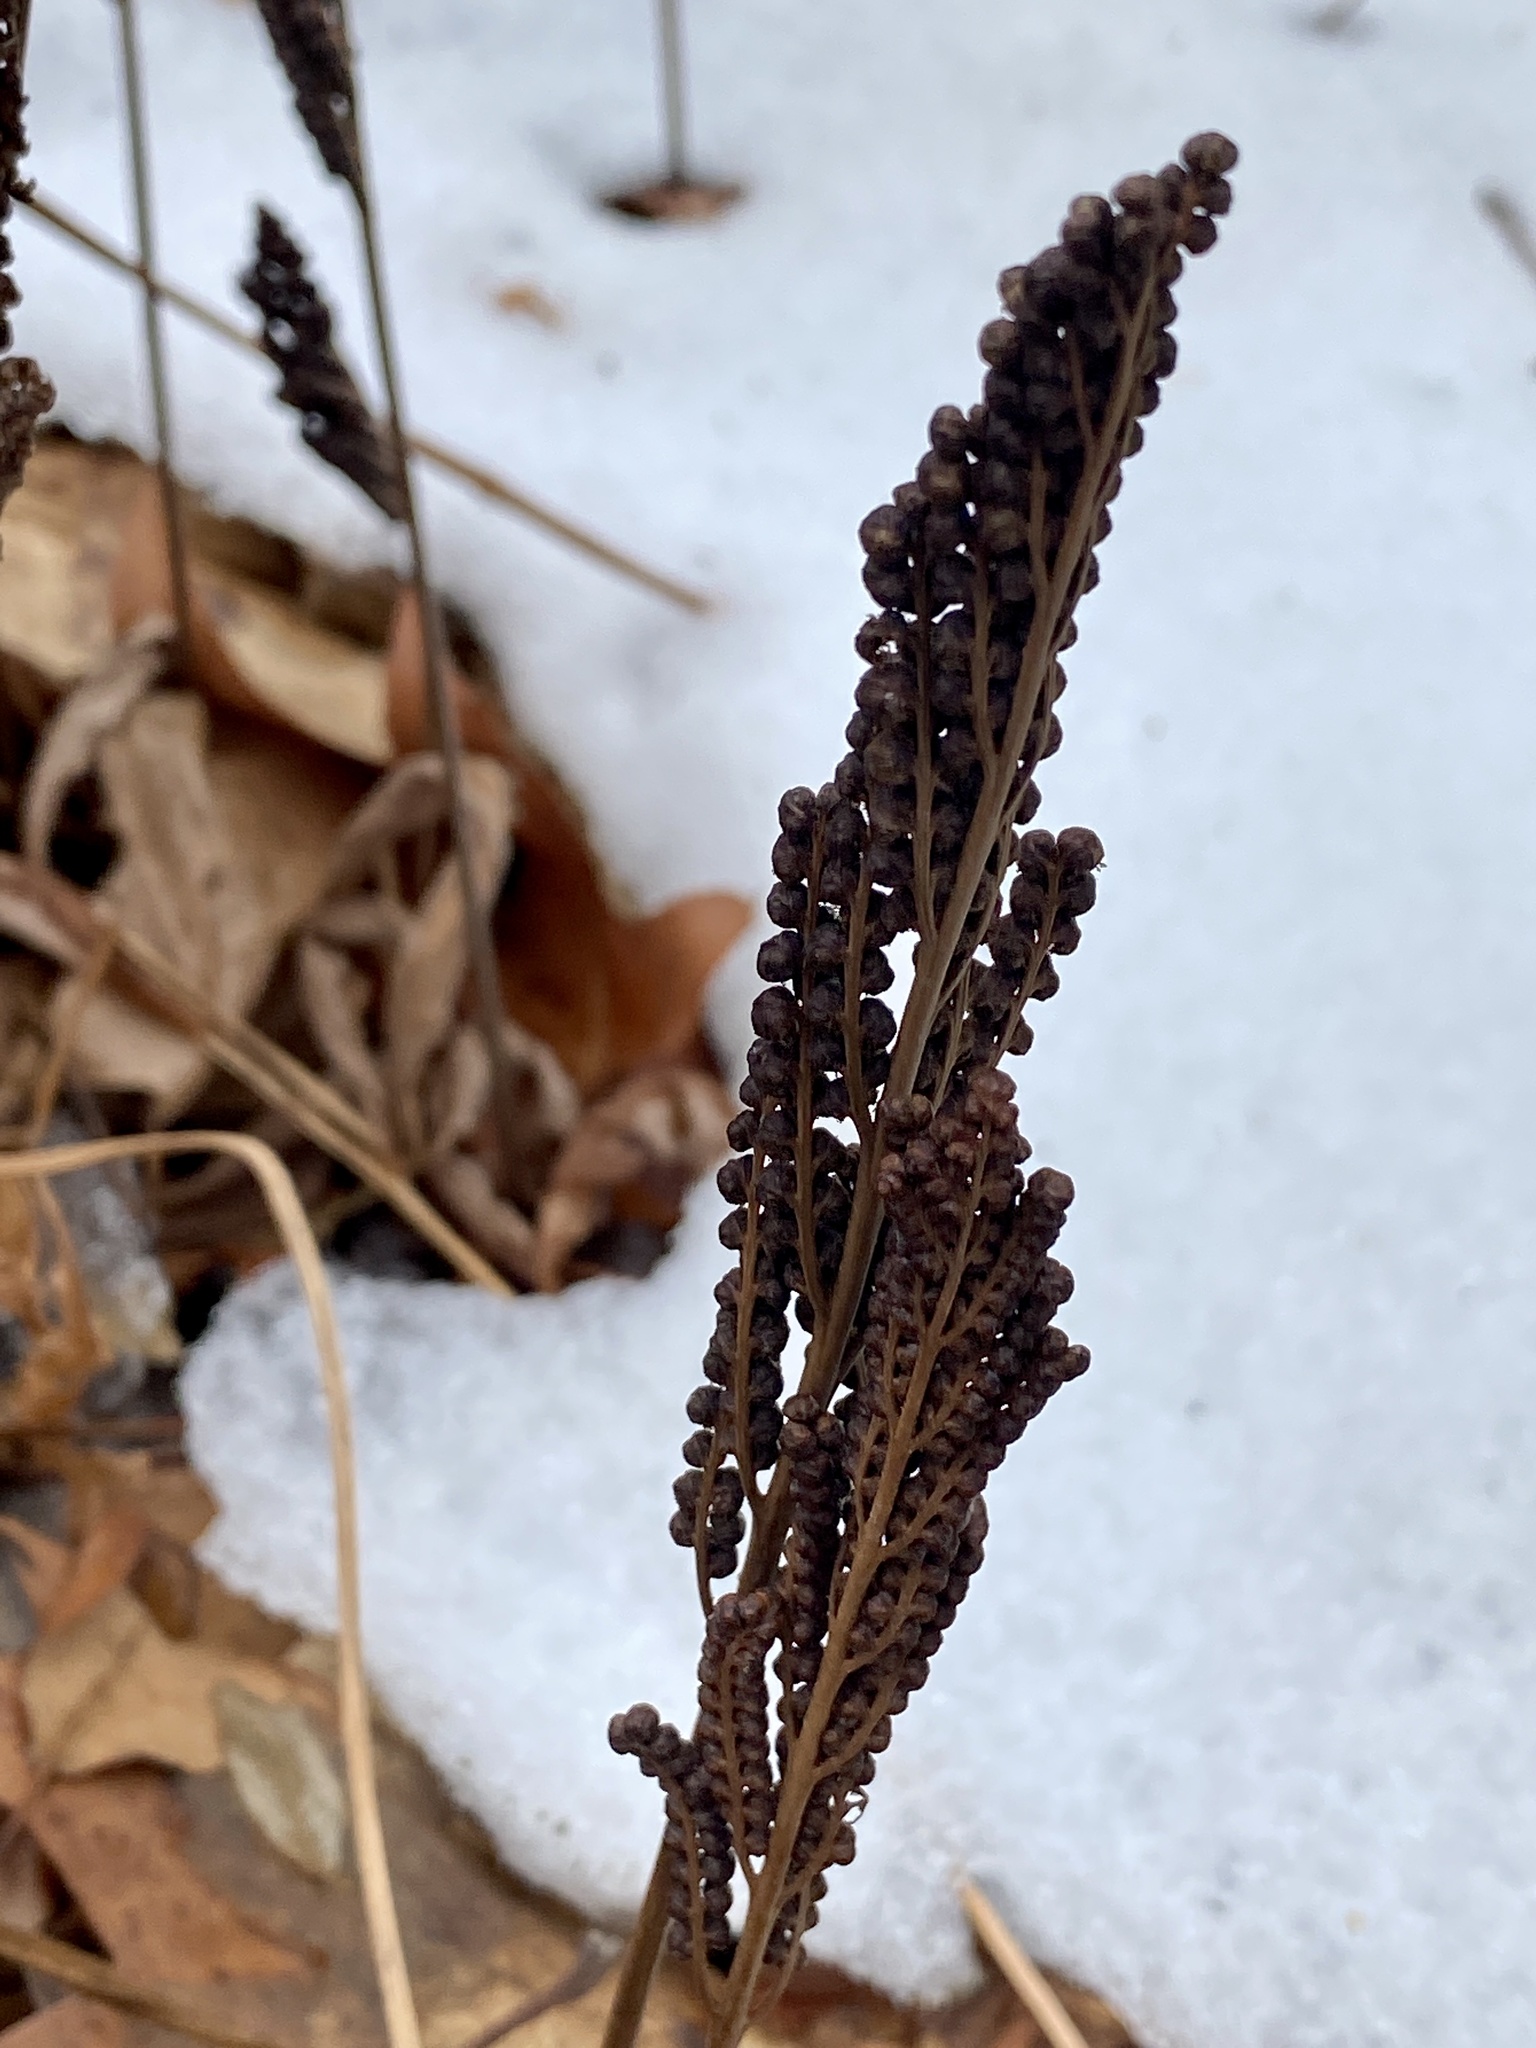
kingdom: Plantae
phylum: Tracheophyta
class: Polypodiopsida
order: Polypodiales
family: Onocleaceae
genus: Onoclea
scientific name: Onoclea sensibilis
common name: Sensitive fern
